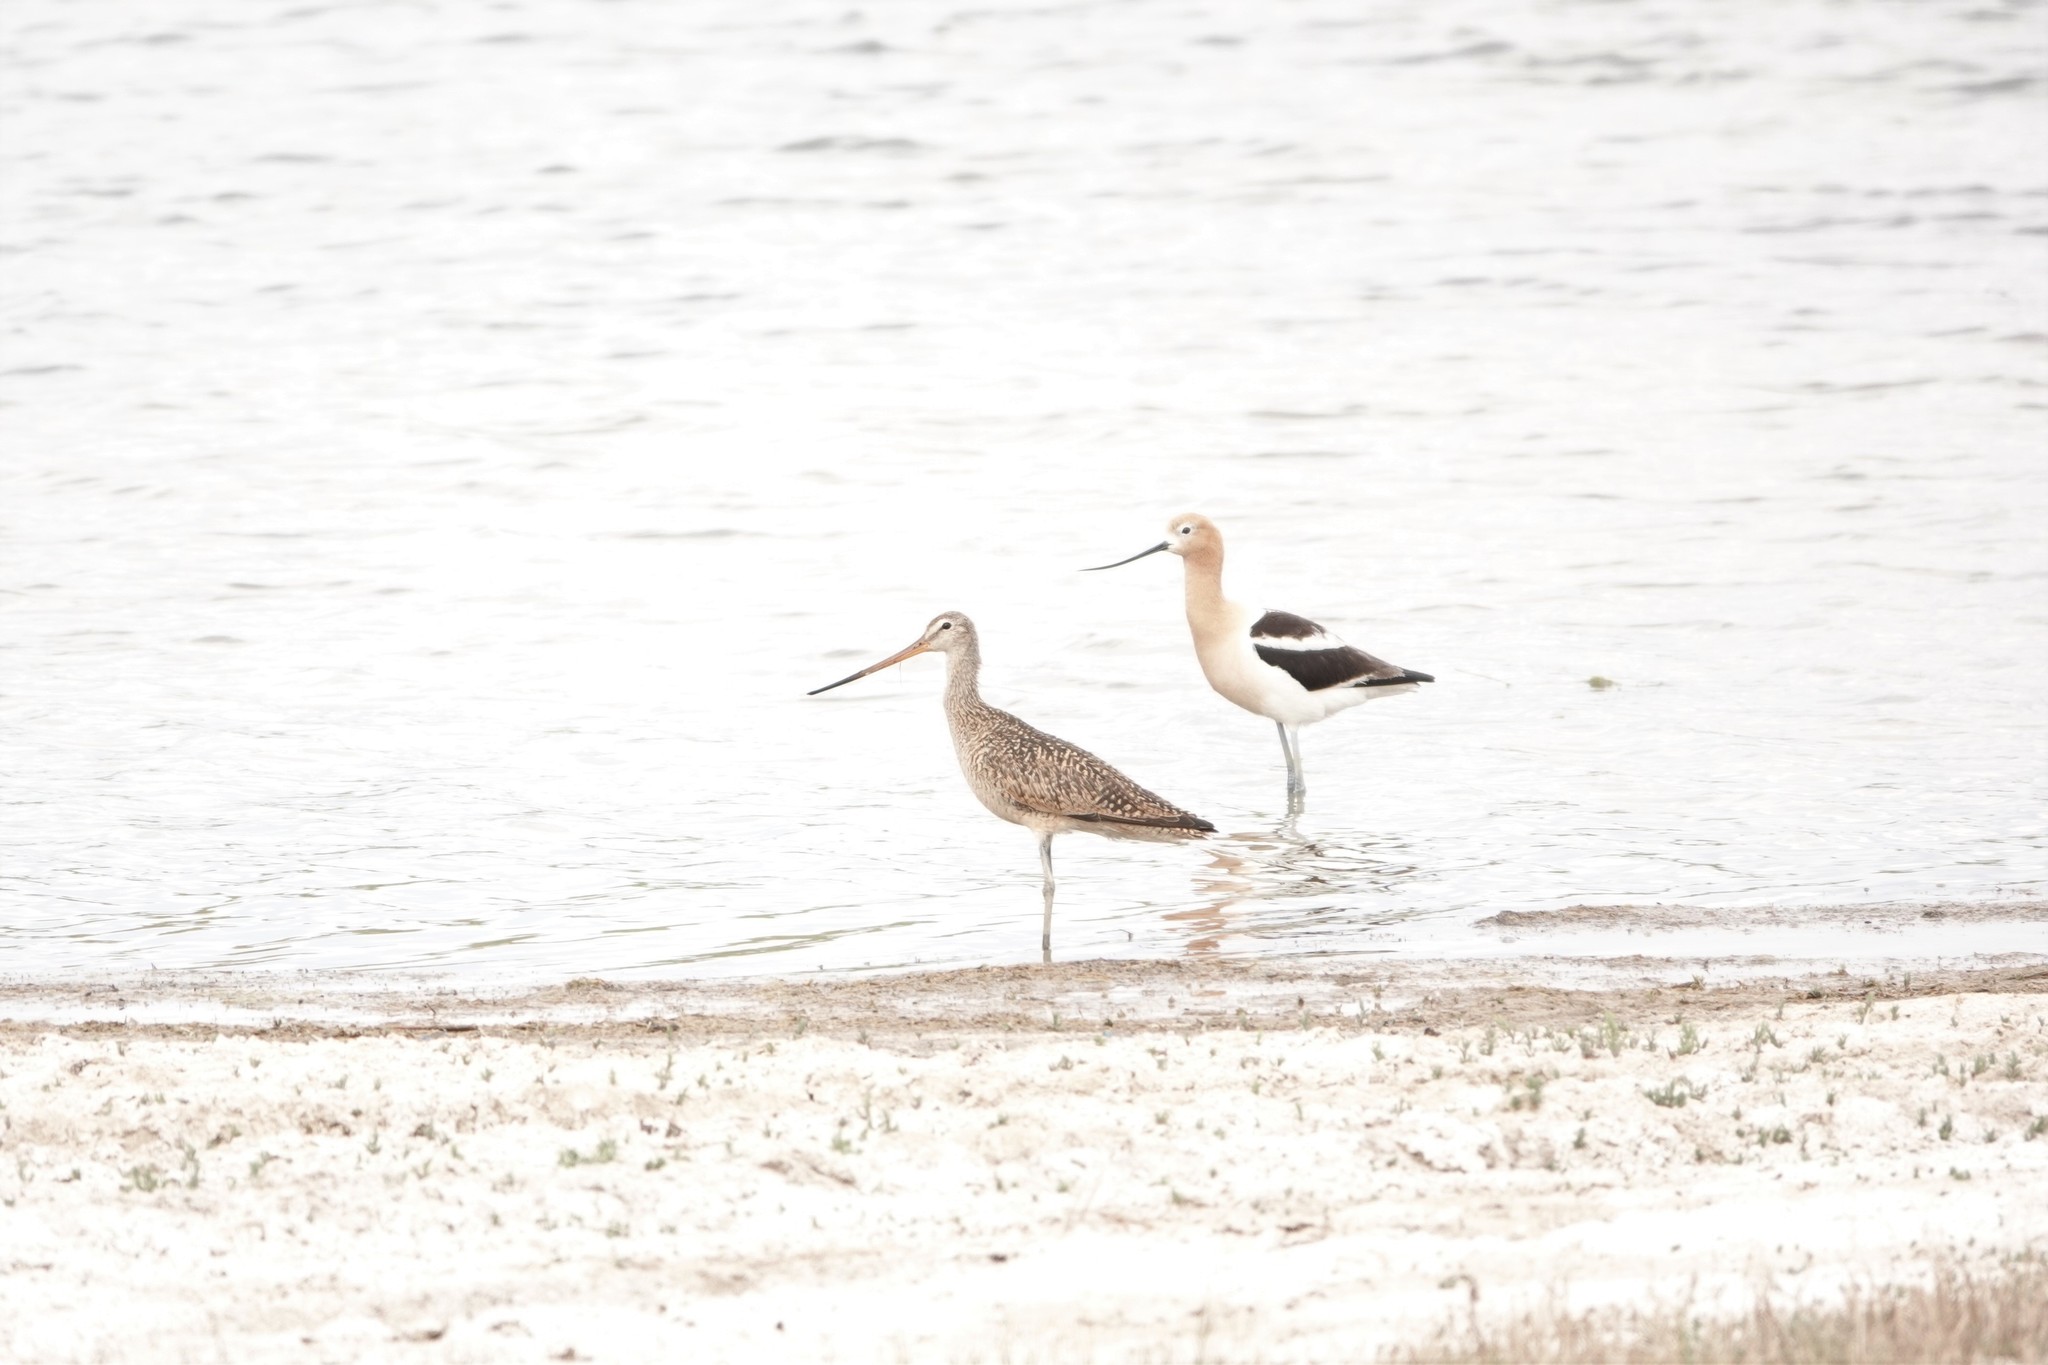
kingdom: Animalia
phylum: Chordata
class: Aves
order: Charadriiformes
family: Scolopacidae
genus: Limosa
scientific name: Limosa fedoa
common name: Marbled godwit
